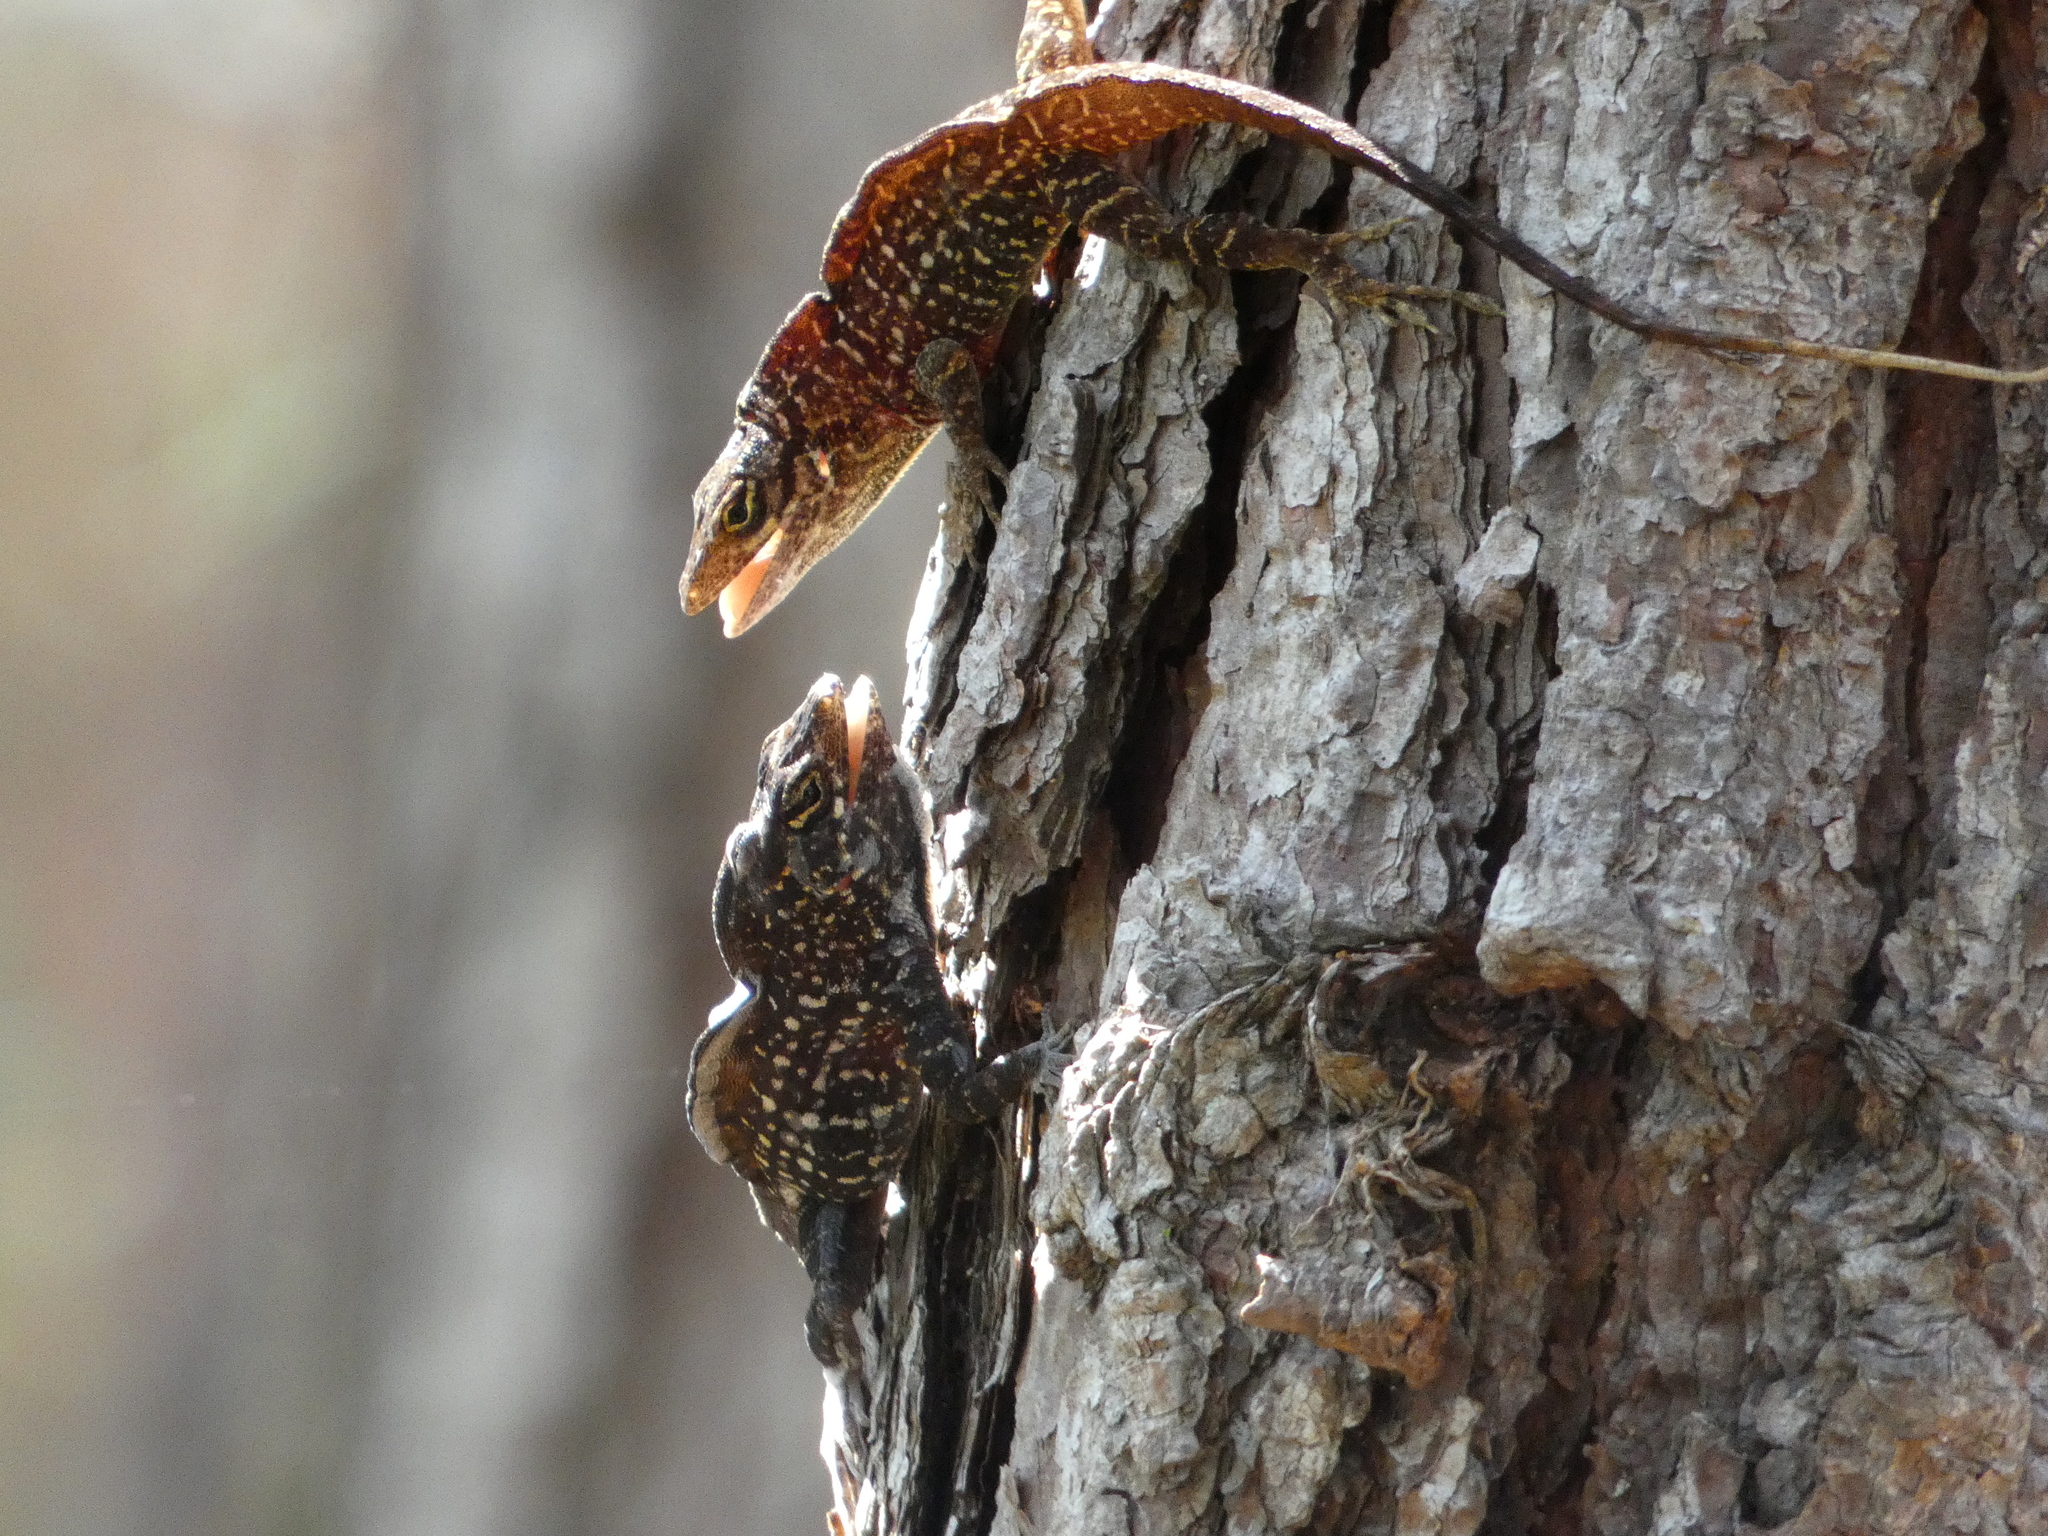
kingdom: Animalia
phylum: Chordata
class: Squamata
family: Dactyloidae
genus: Anolis
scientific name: Anolis sagrei
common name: Brown anole
